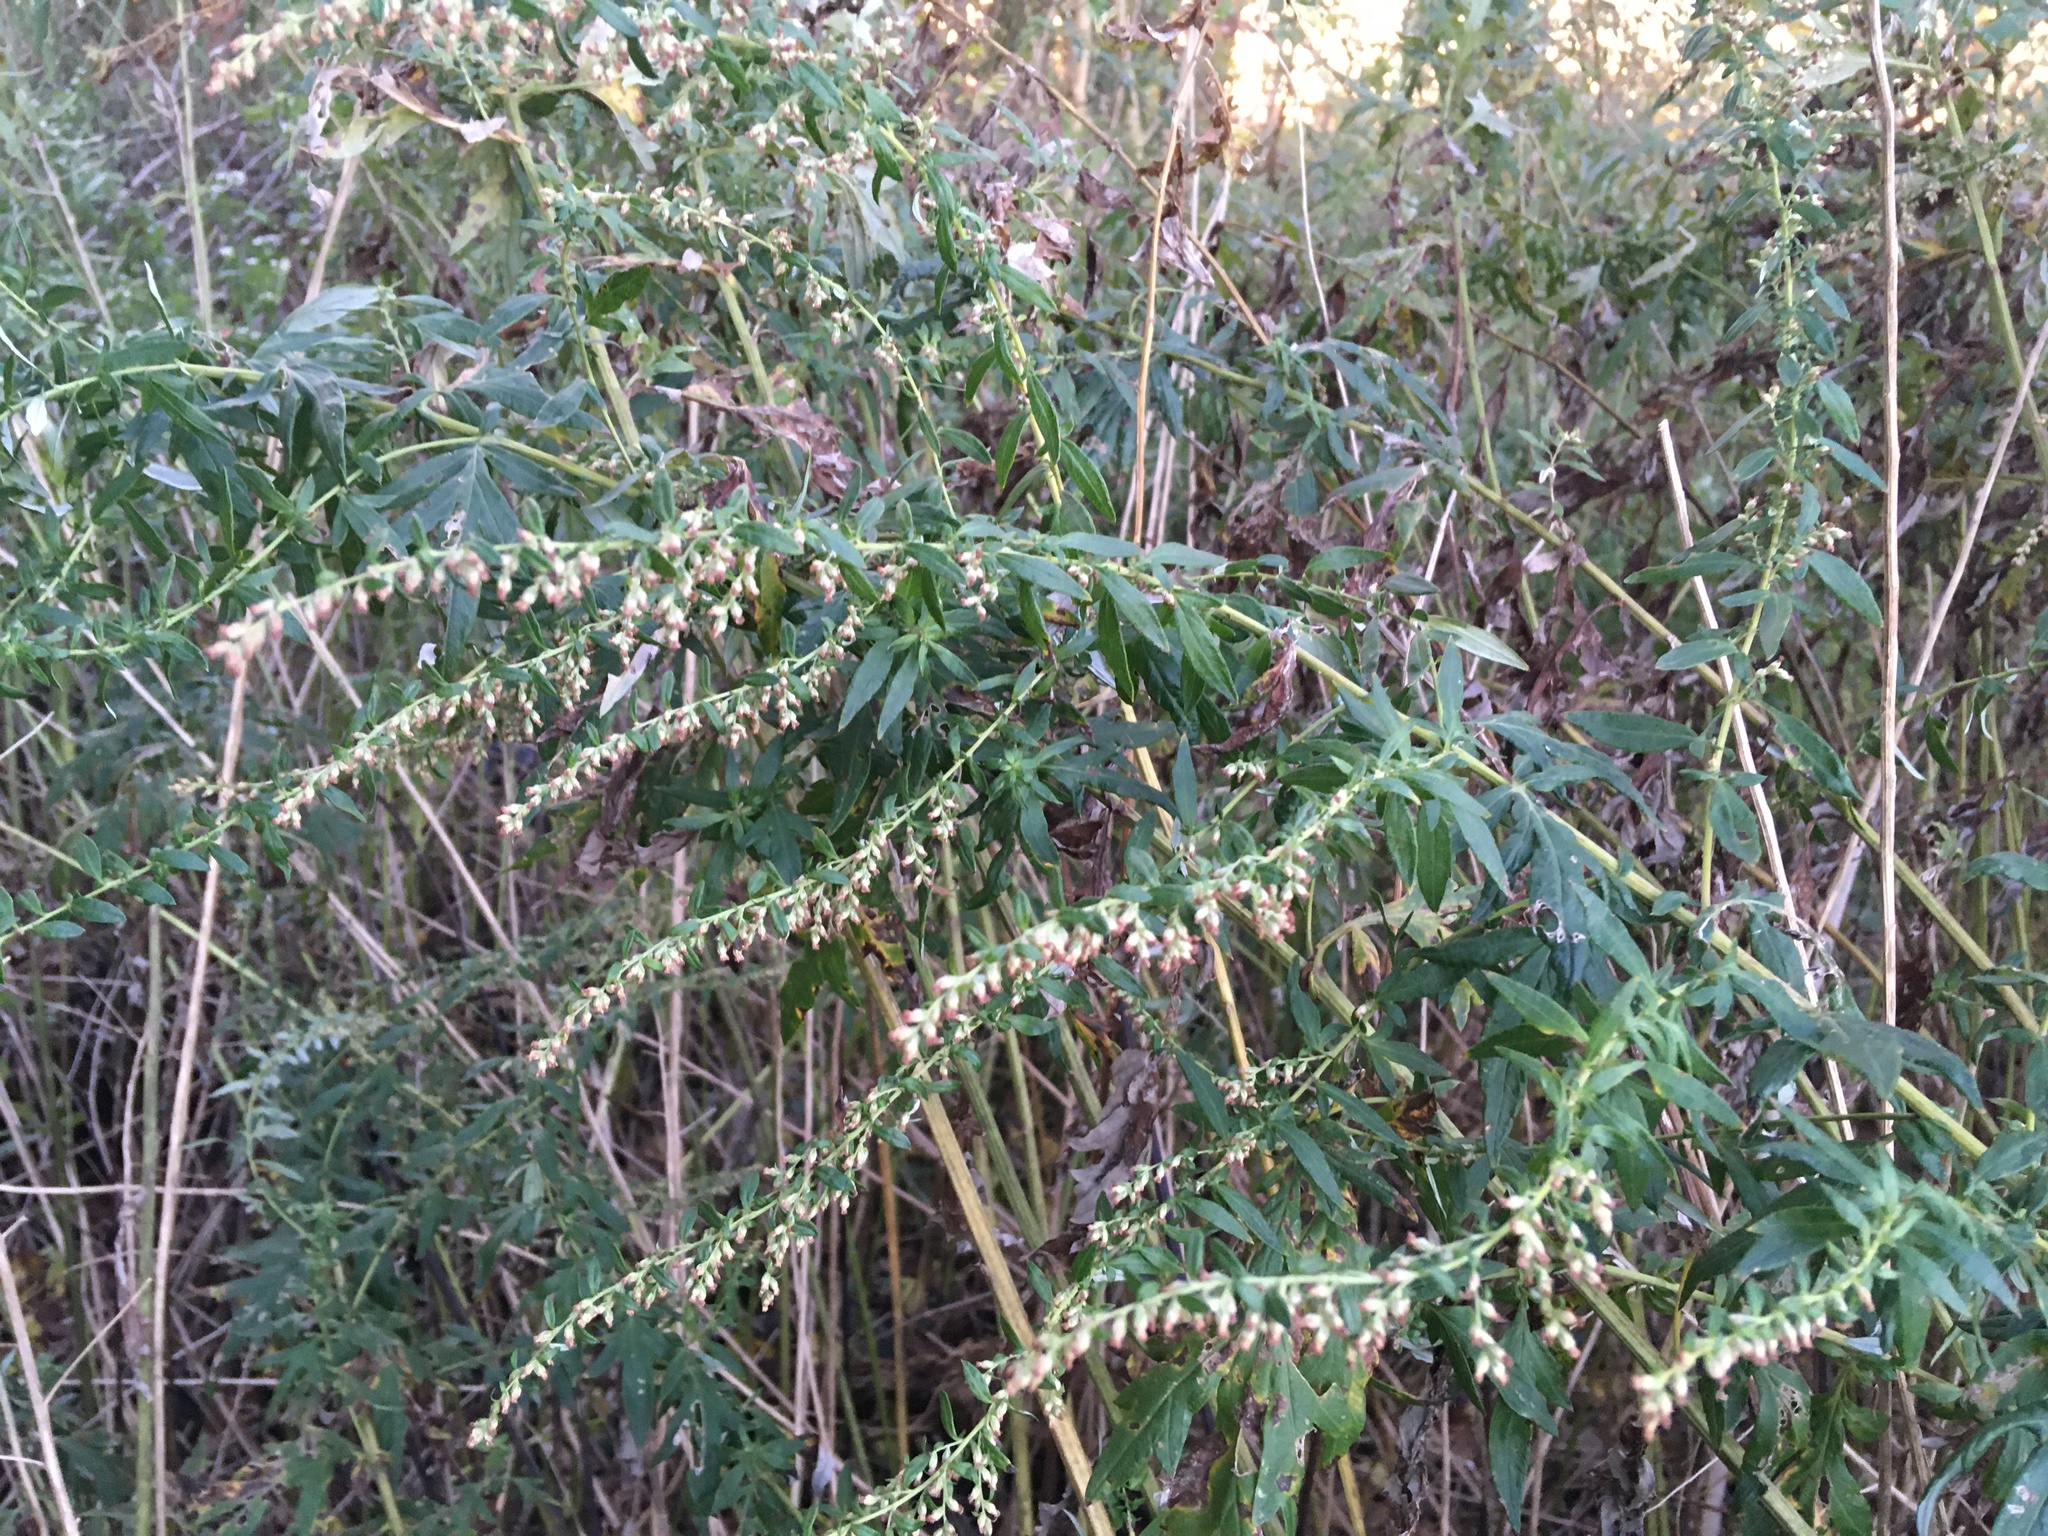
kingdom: Plantae
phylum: Tracheophyta
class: Magnoliopsida
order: Asterales
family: Asteraceae
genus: Artemisia
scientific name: Artemisia vulgaris
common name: Mugwort
